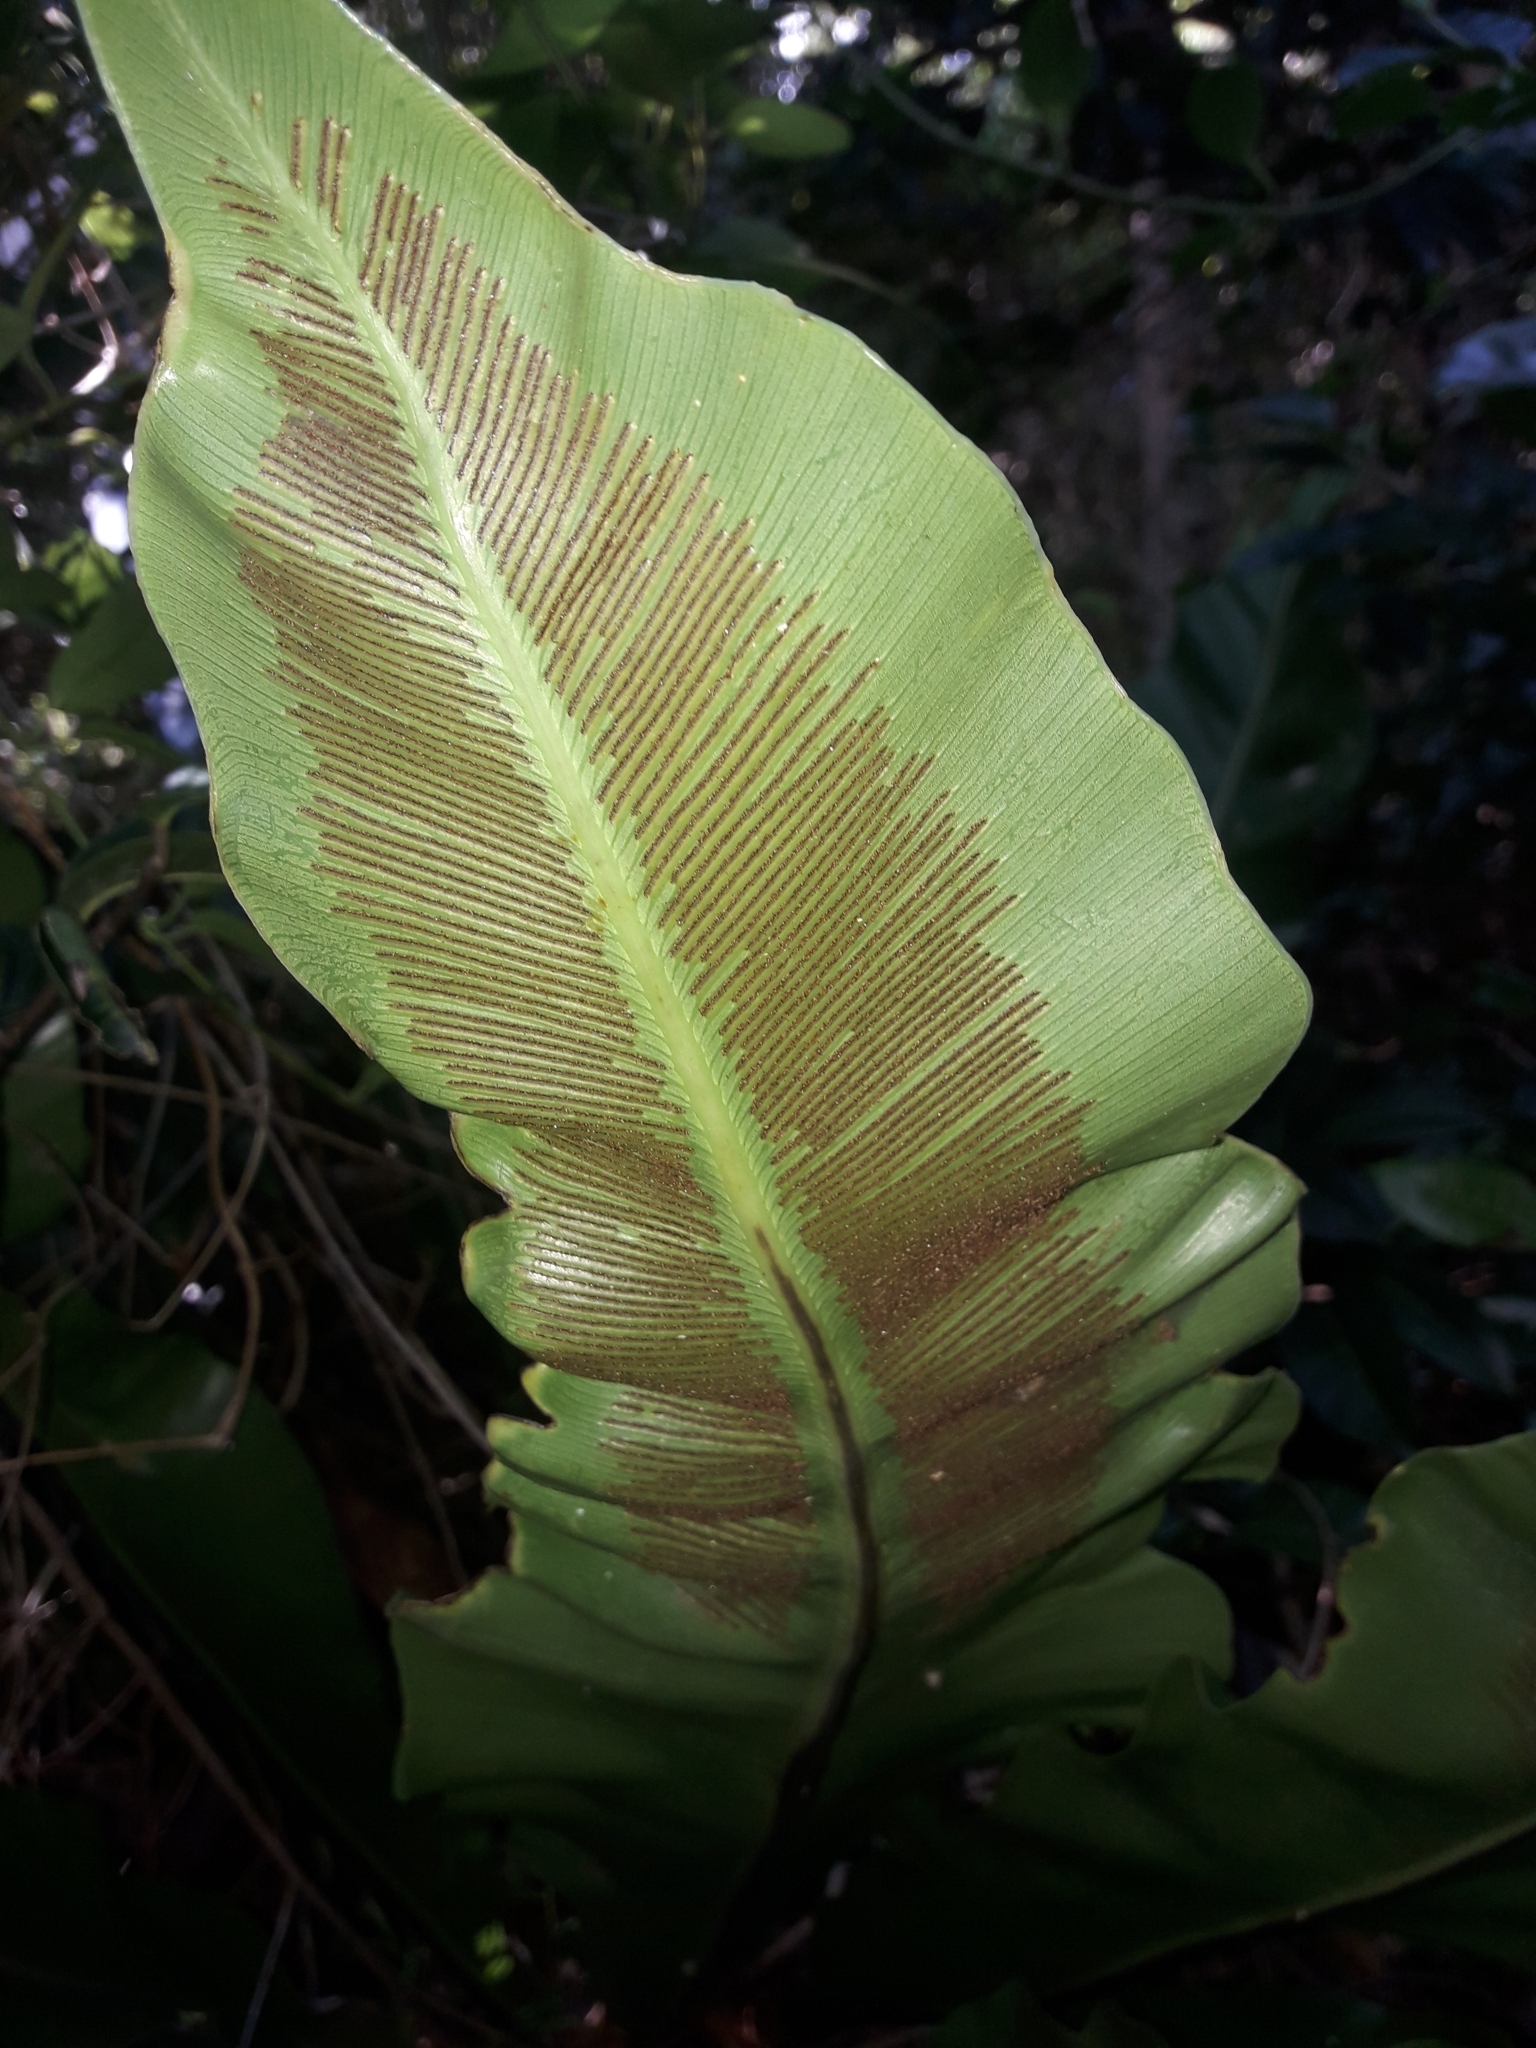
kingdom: Plantae
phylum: Tracheophyta
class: Polypodiopsida
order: Polypodiales
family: Aspleniaceae
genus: Asplenium
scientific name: Asplenium goudeyi
